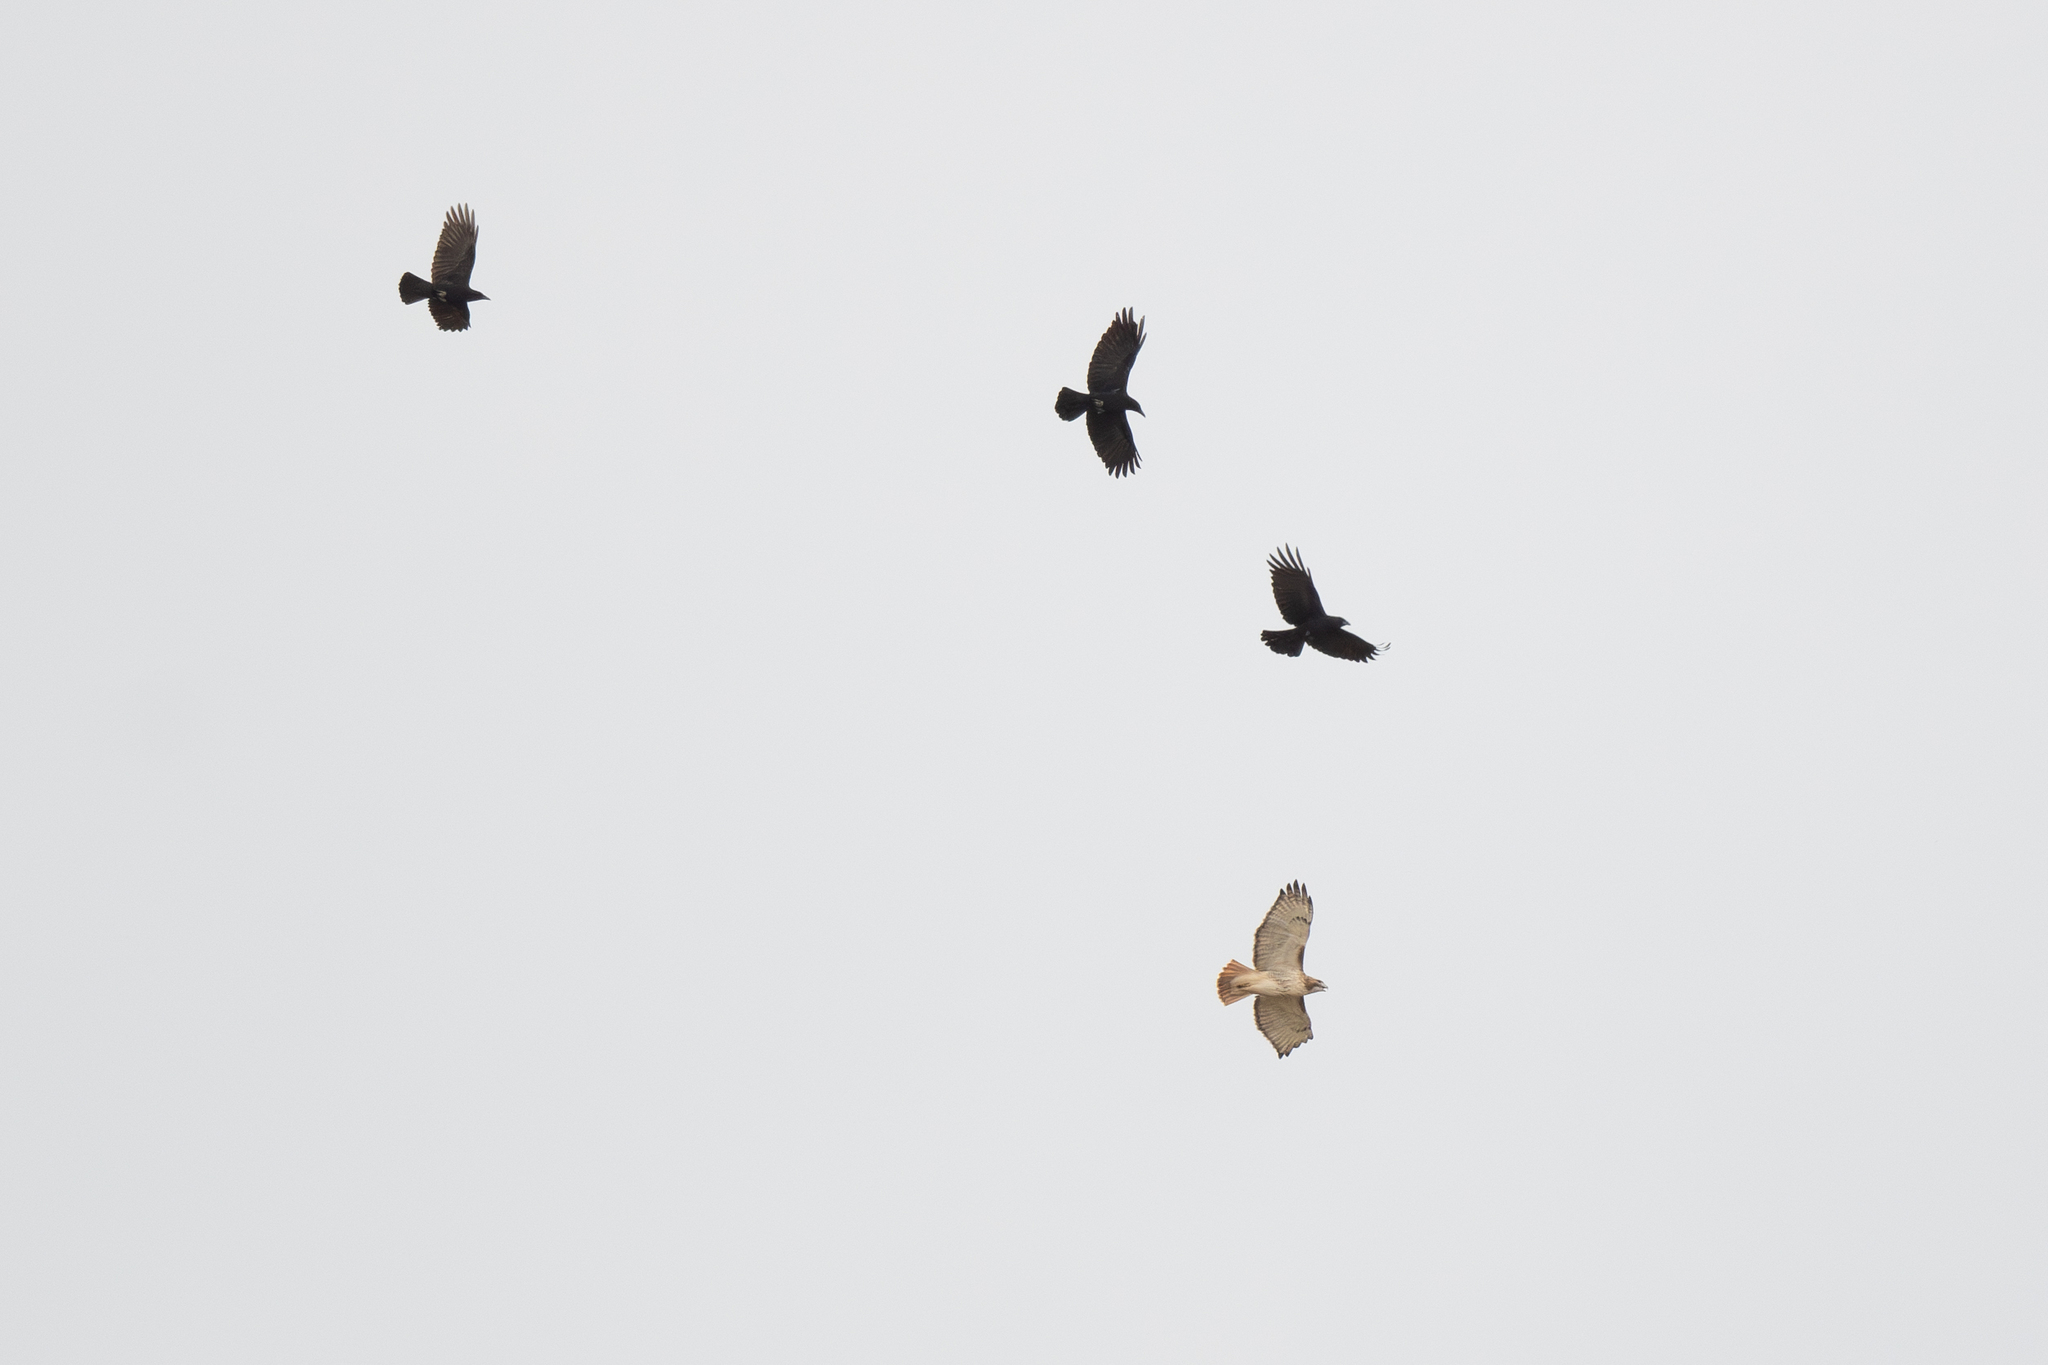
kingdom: Animalia
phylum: Chordata
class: Aves
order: Passeriformes
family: Corvidae
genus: Corvus
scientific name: Corvus brachyrhynchos
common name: American crow
